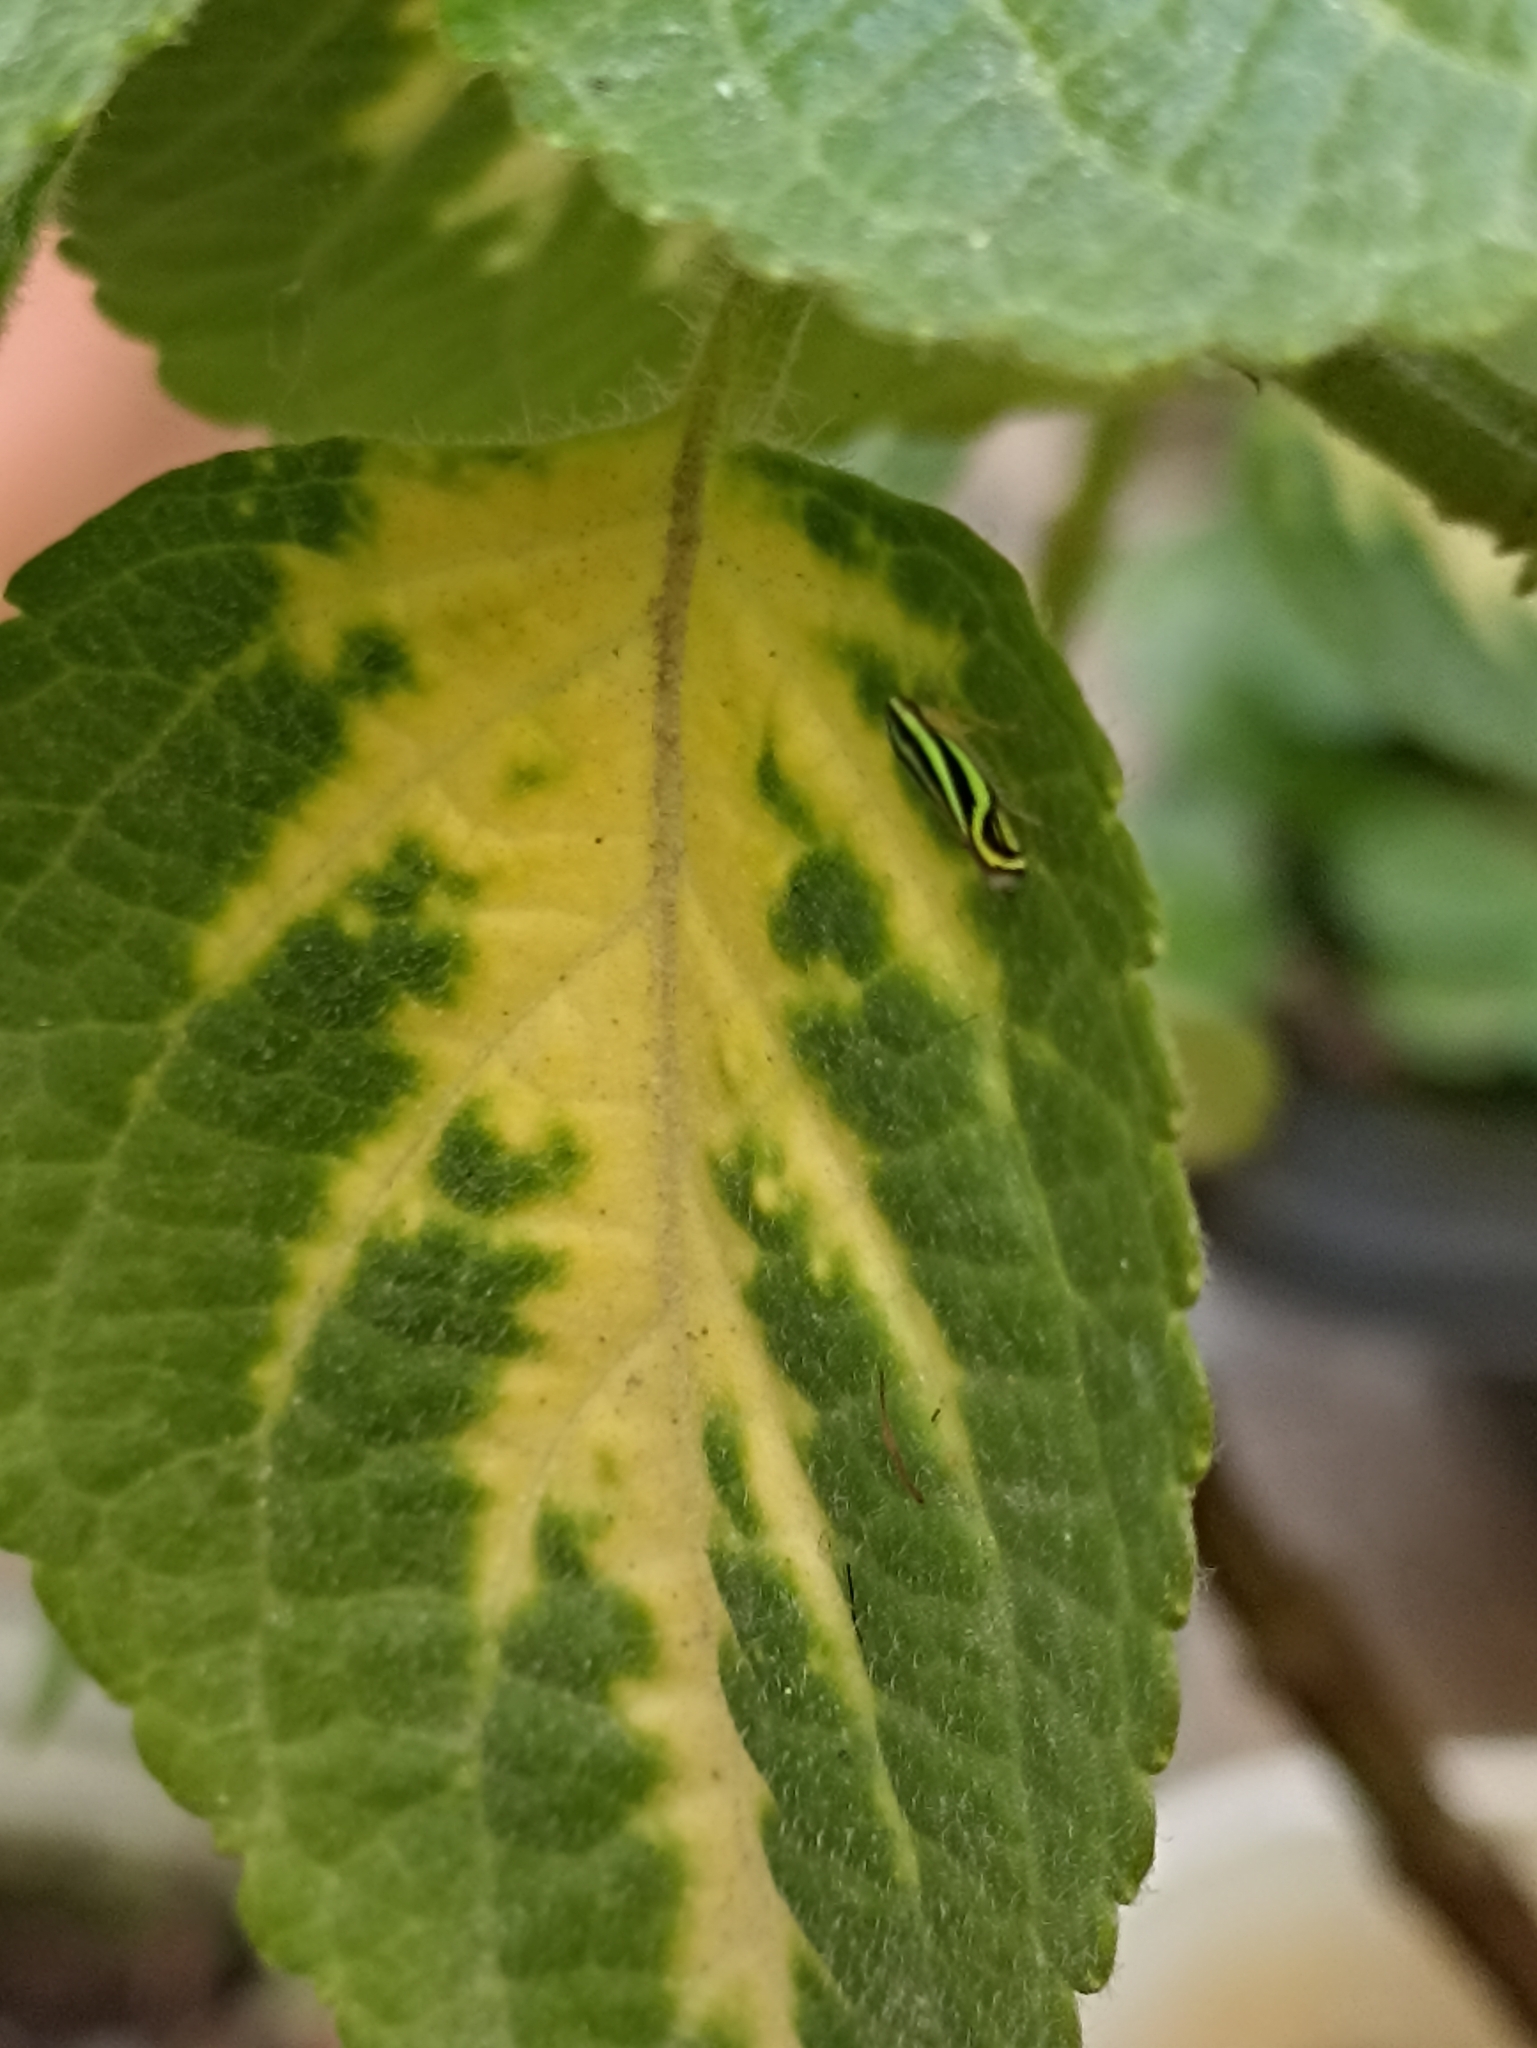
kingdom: Animalia
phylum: Arthropoda
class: Insecta
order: Hemiptera
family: Cicadellidae
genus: Sibovia
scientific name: Sibovia sagata
